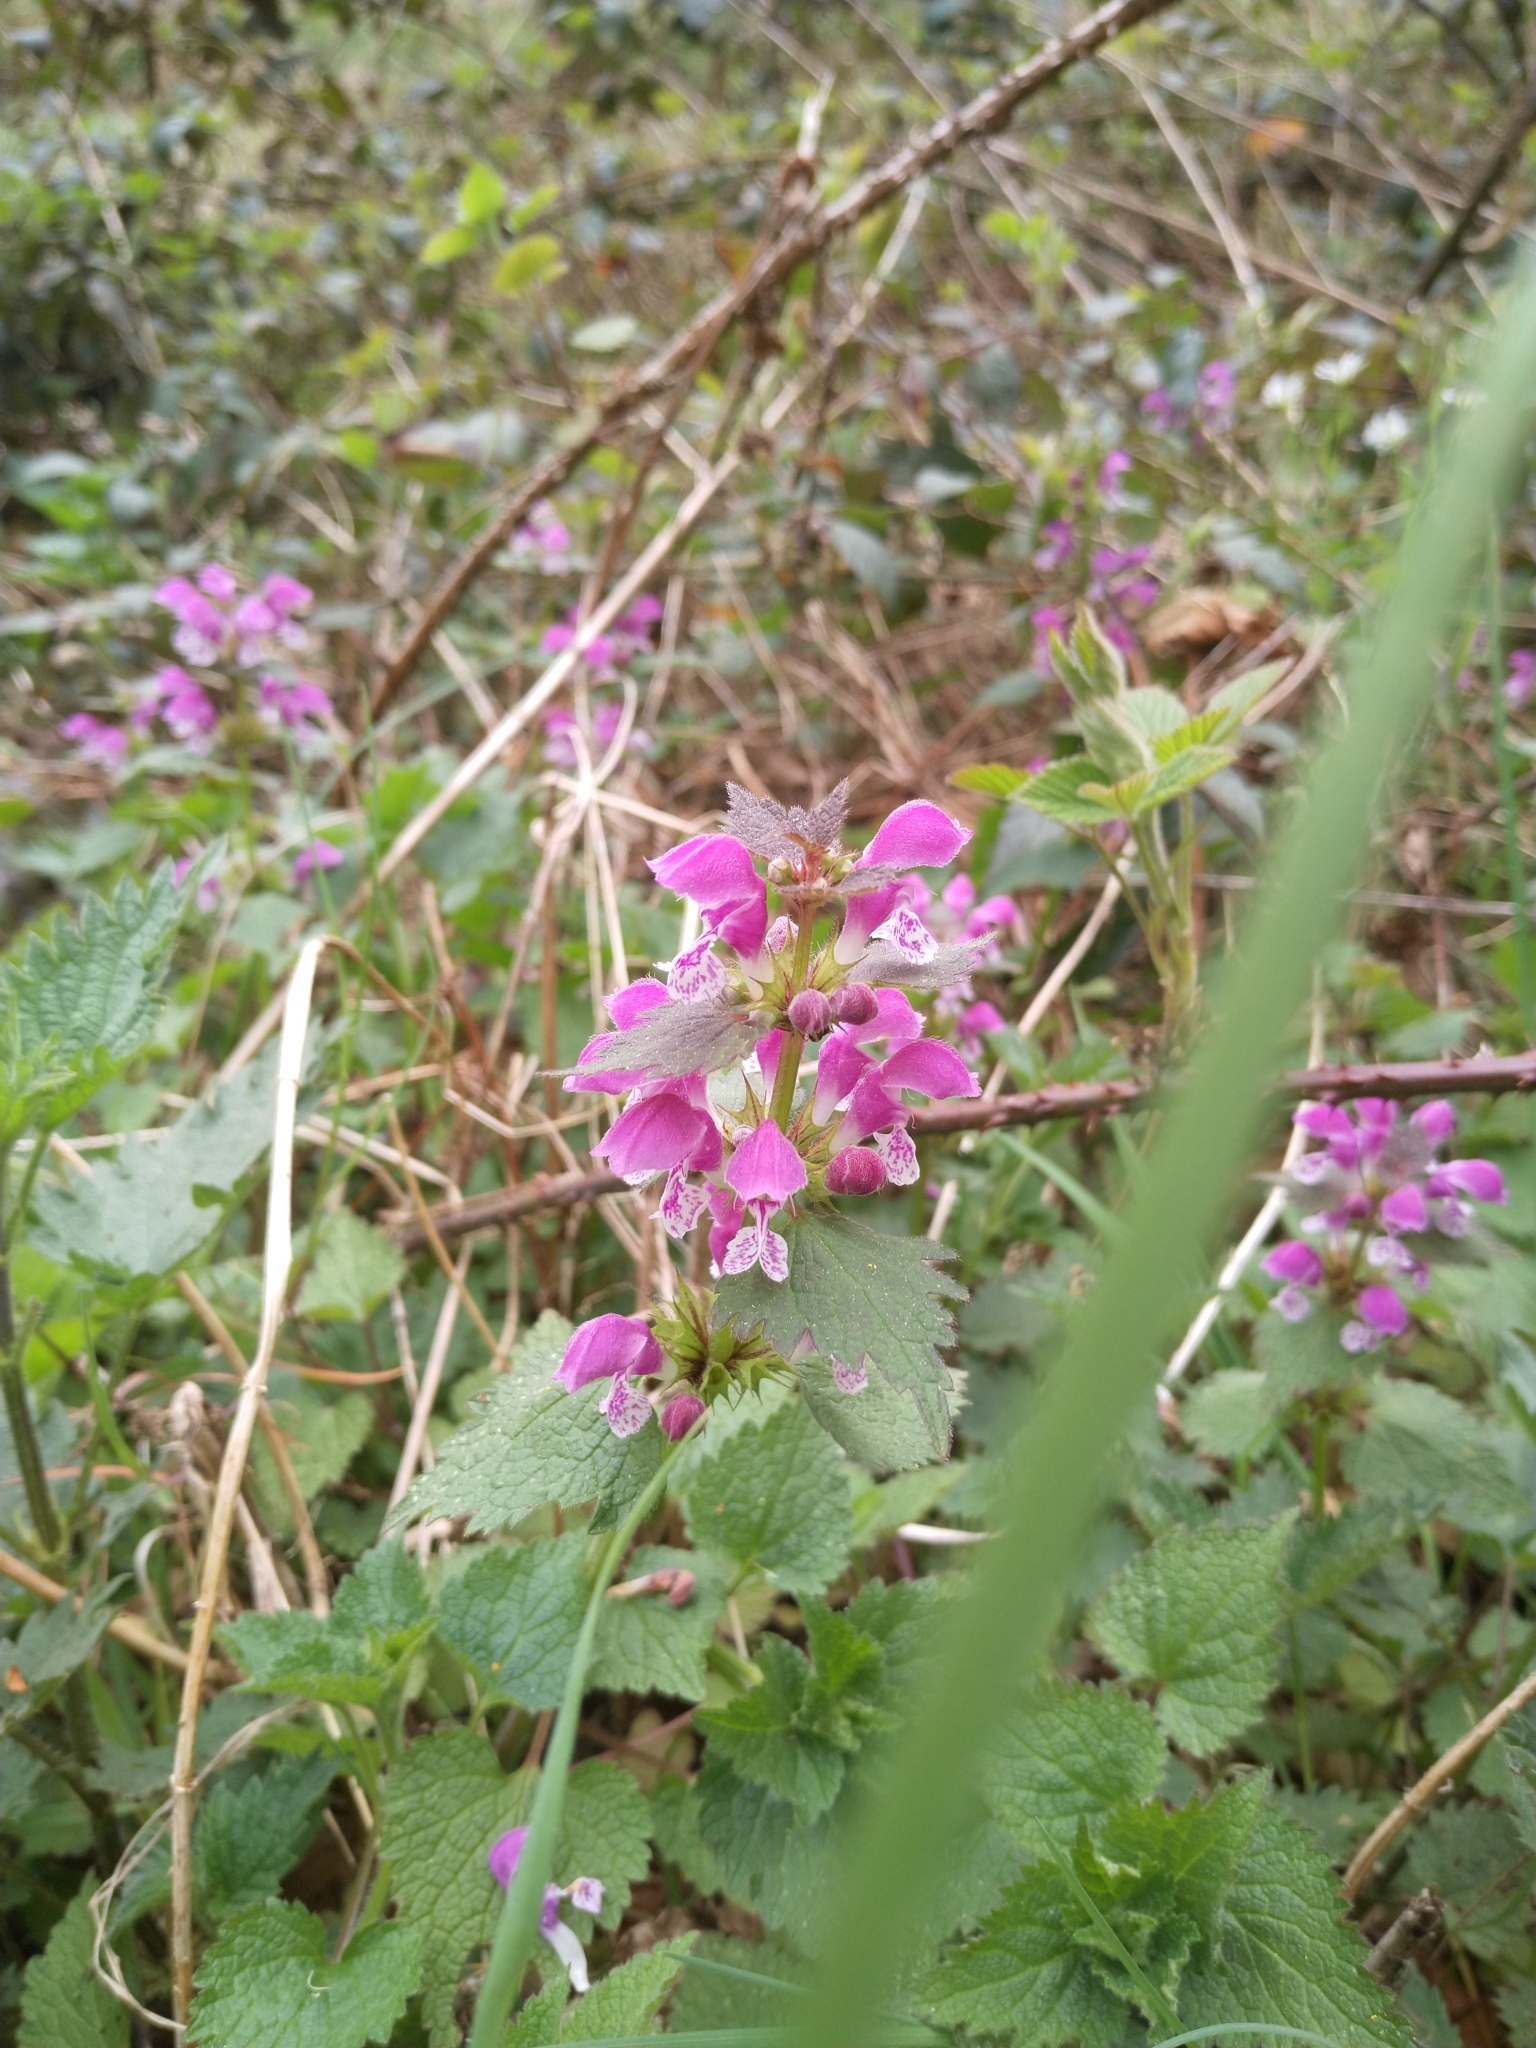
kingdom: Plantae
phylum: Tracheophyta
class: Magnoliopsida
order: Lamiales
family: Lamiaceae
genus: Lamium
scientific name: Lamium maculatum
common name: Spotted dead-nettle
